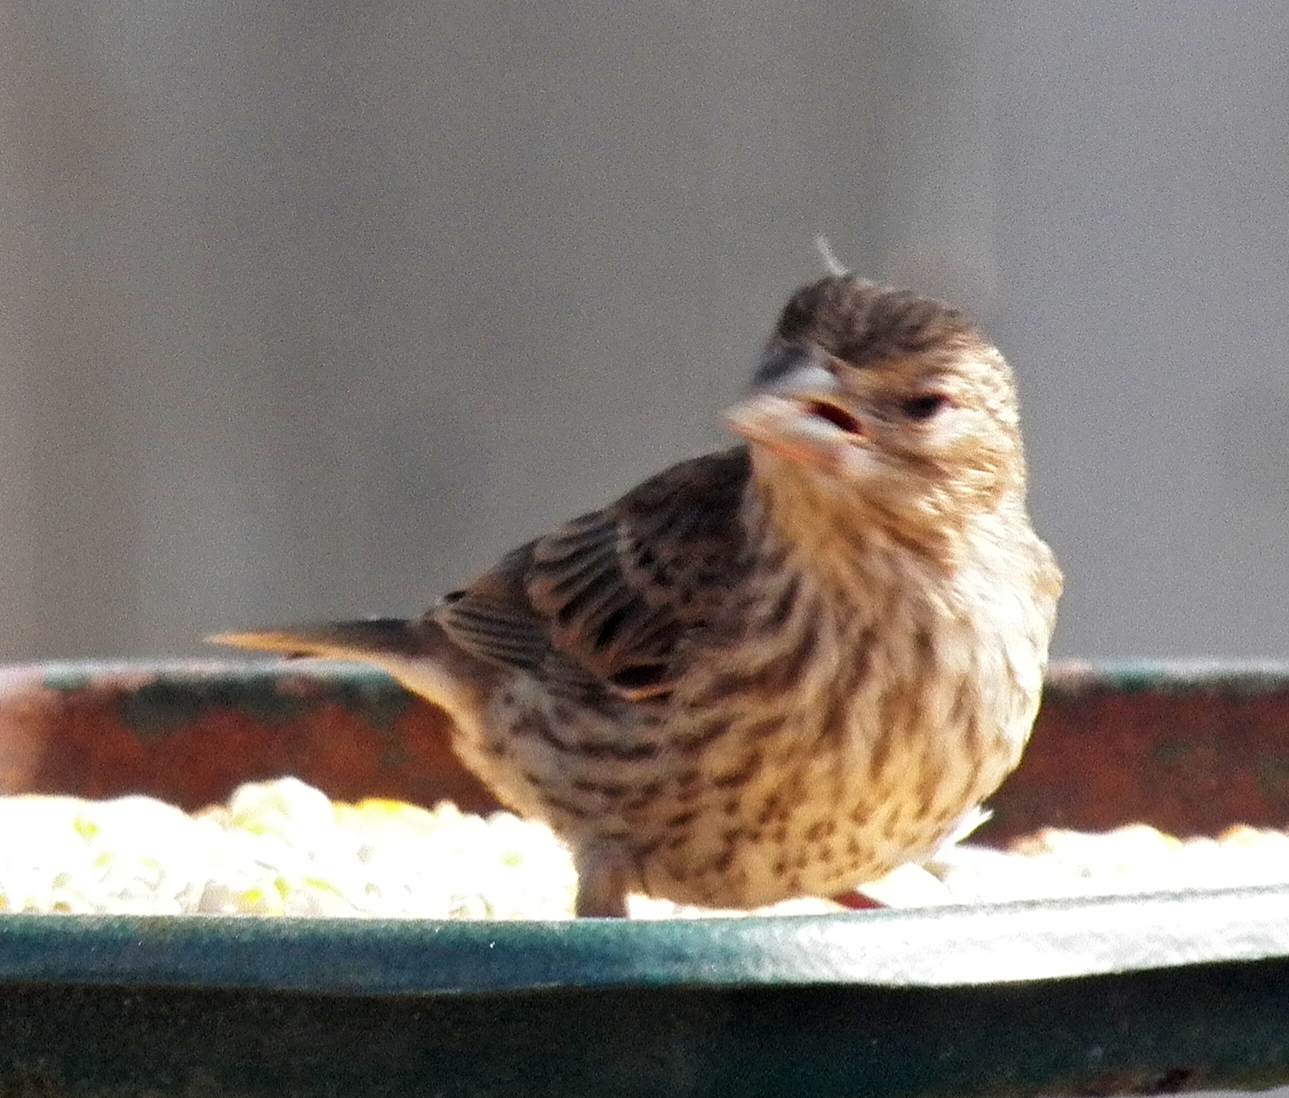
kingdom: Animalia
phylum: Chordata
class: Aves
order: Passeriformes
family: Fringillidae
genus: Haemorhous
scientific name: Haemorhous mexicanus
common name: House finch
